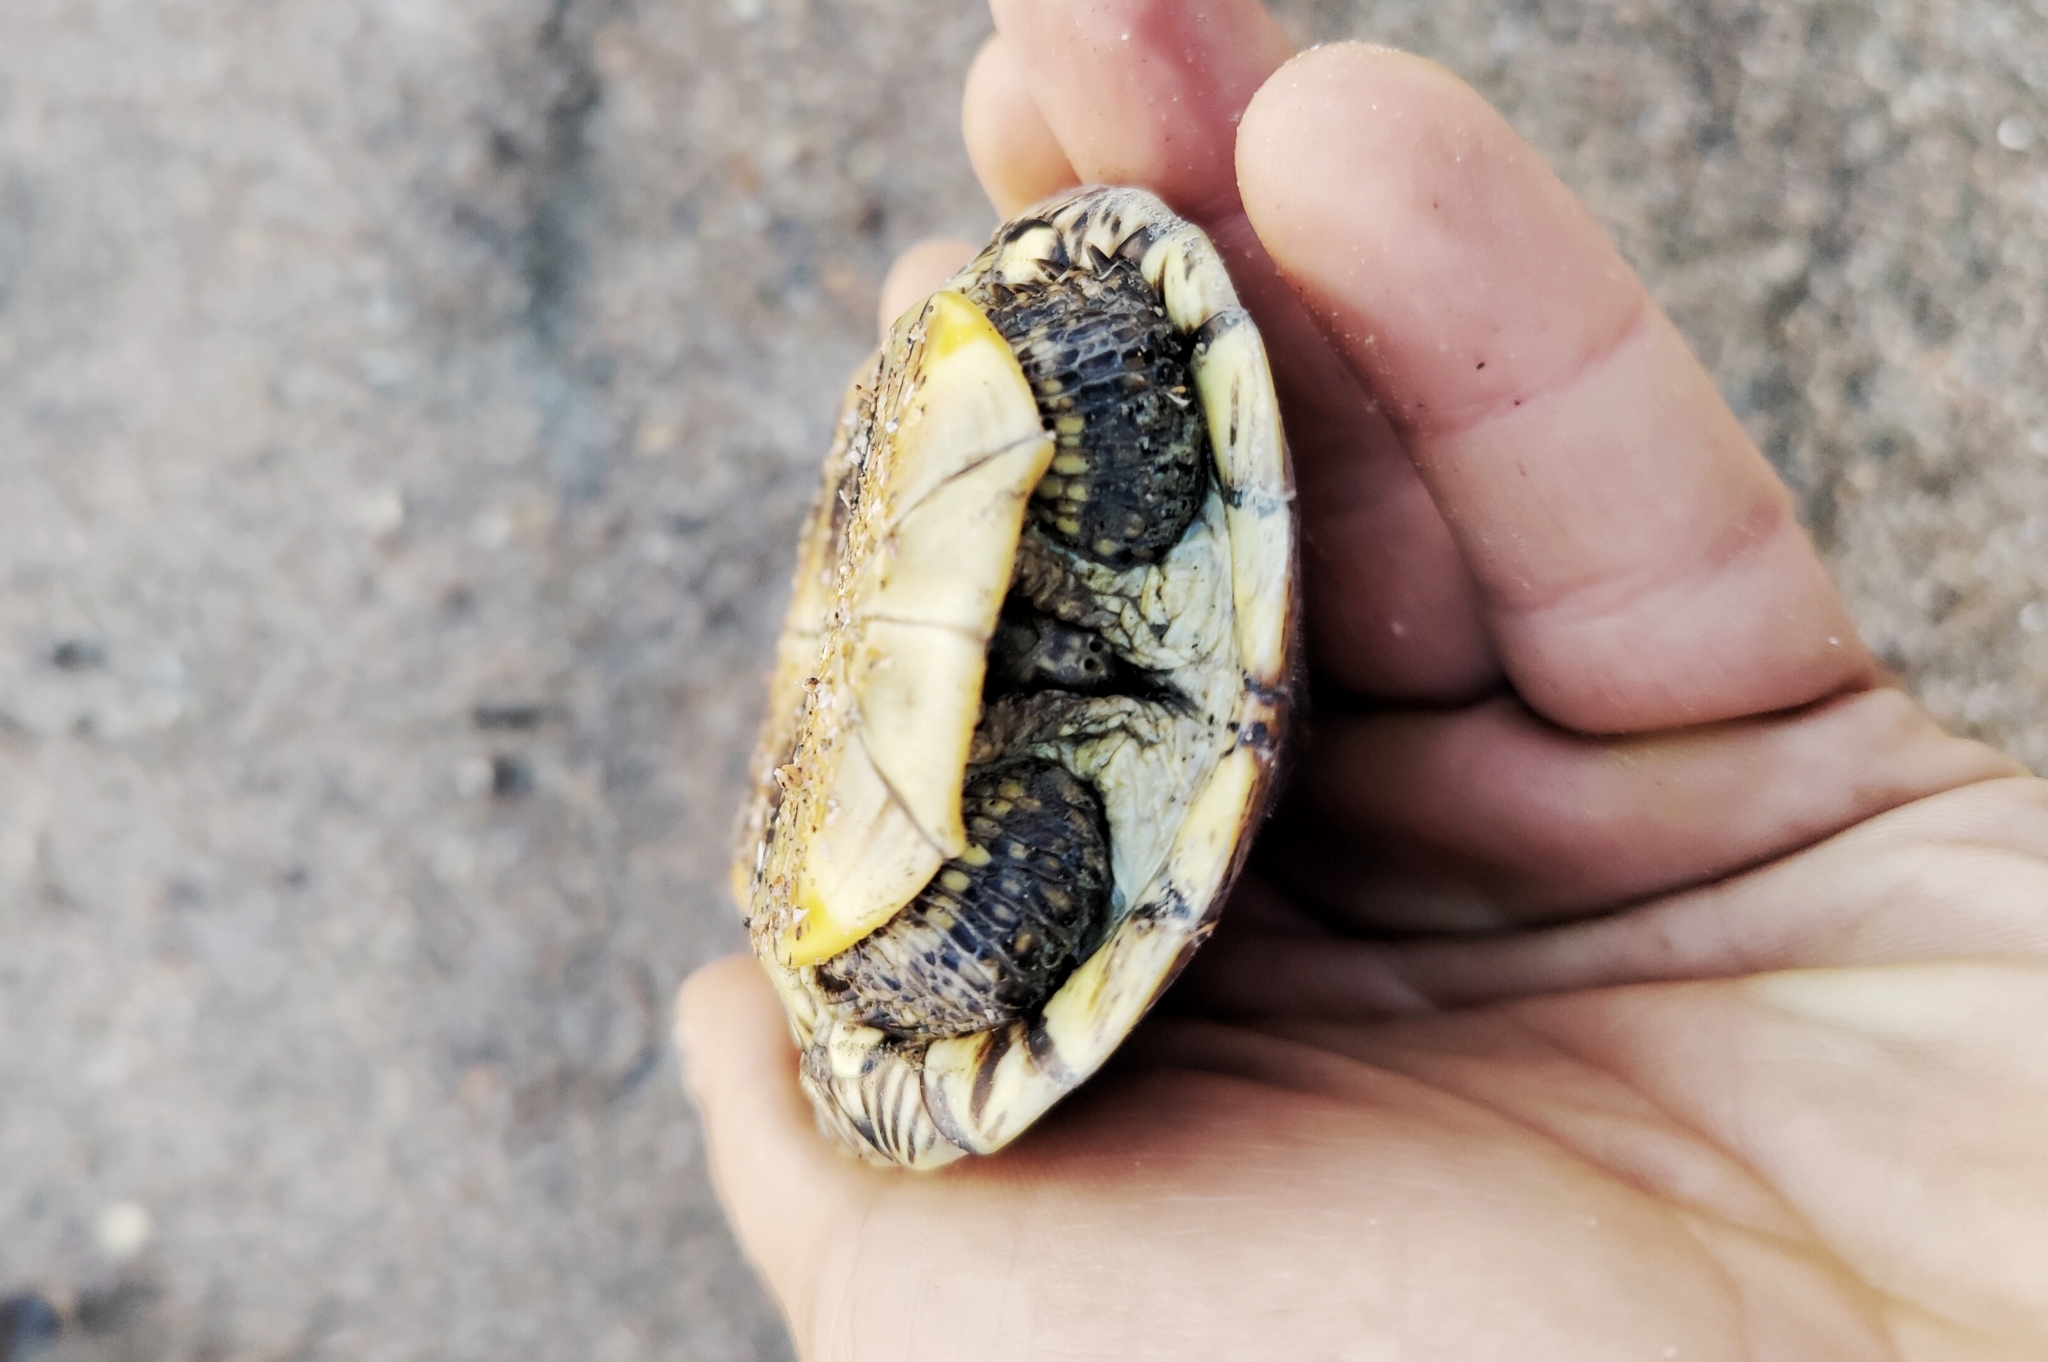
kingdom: Animalia
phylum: Chordata
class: Testudines
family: Emydidae
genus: Emys
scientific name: Emys orbicularis
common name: European pond turtle
